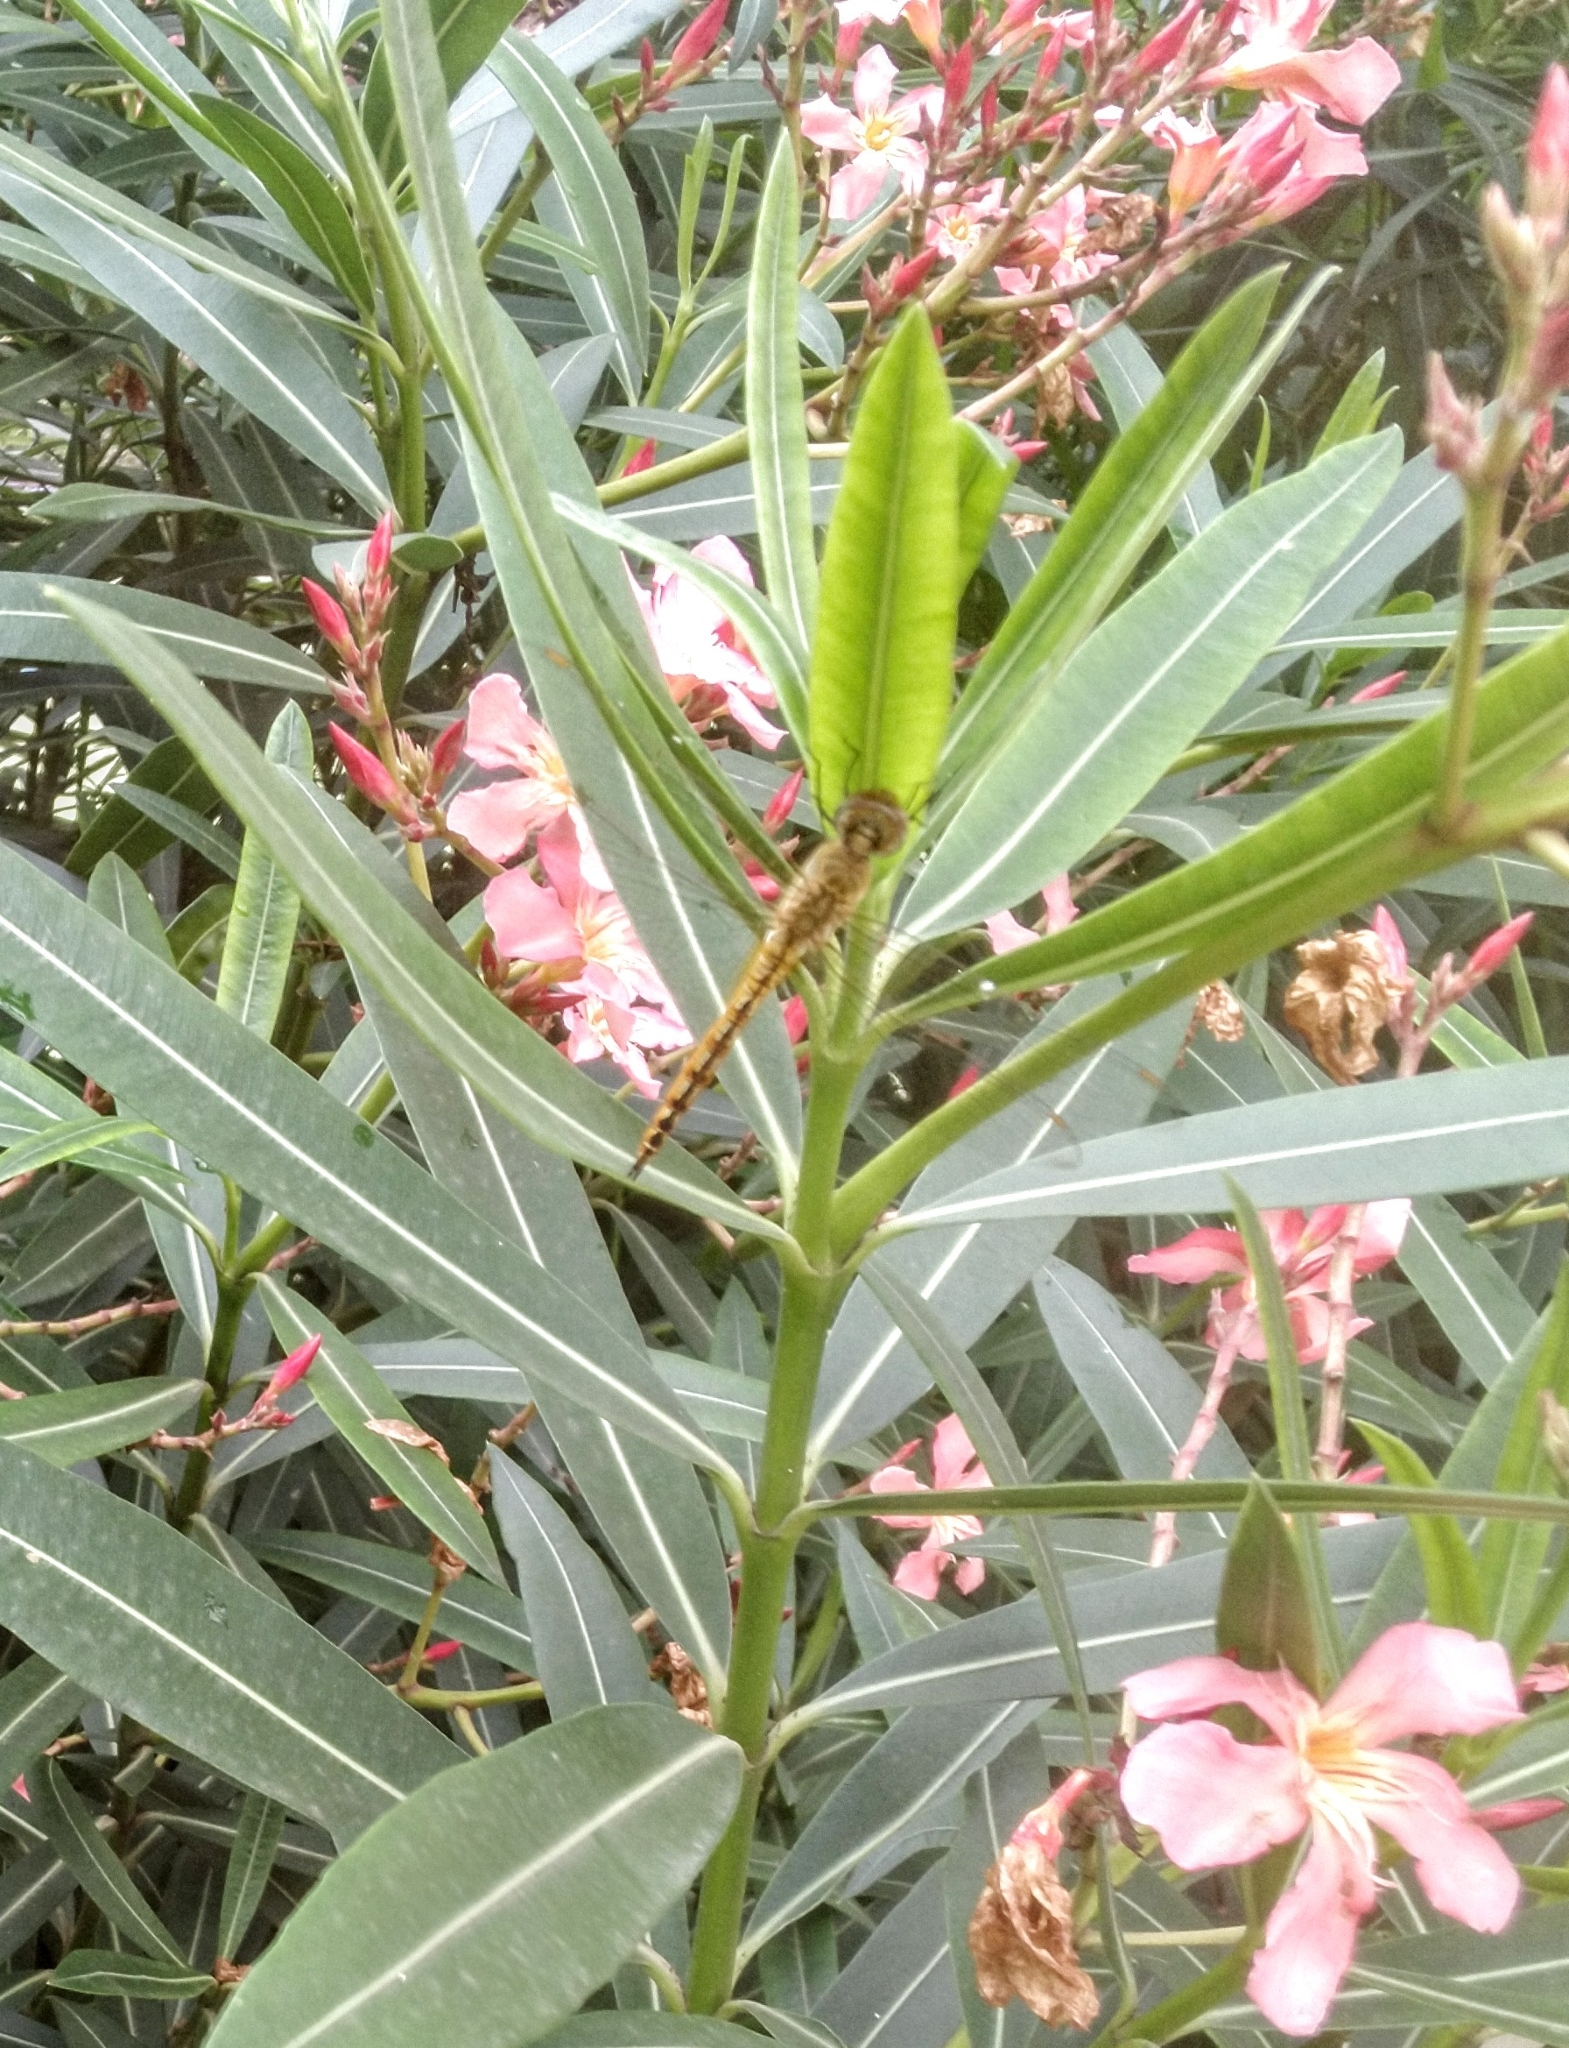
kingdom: Animalia
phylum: Arthropoda
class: Insecta
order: Odonata
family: Libellulidae
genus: Pantala
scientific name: Pantala flavescens
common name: Wandering glider
